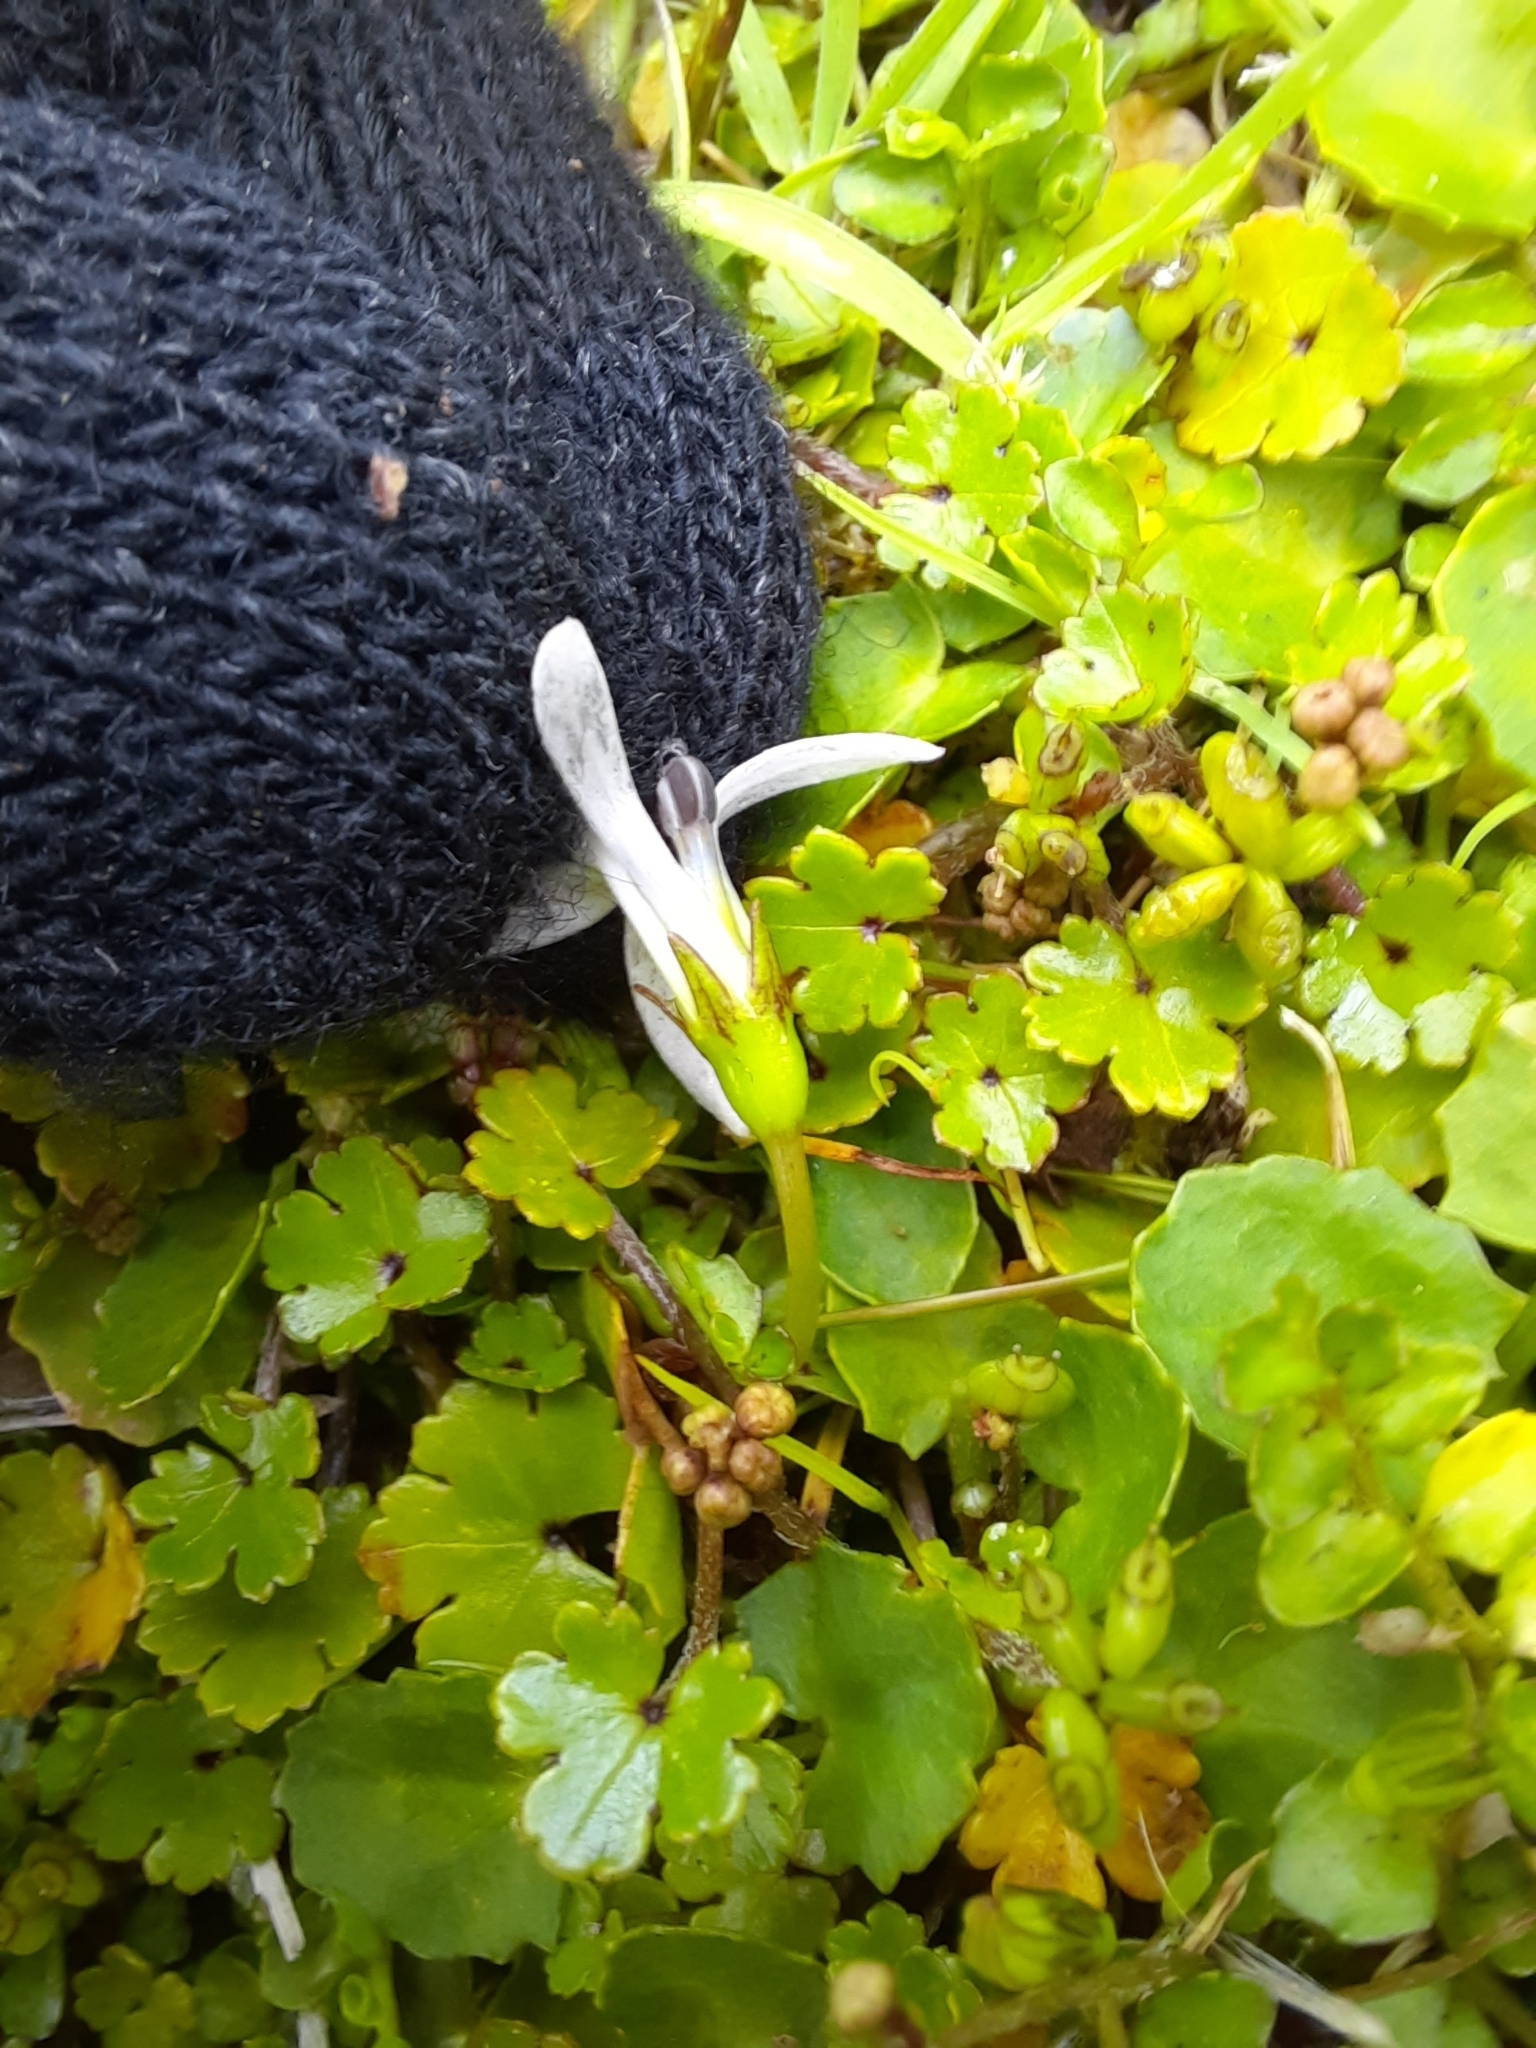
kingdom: Plantae
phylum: Tracheophyta
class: Magnoliopsida
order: Asterales
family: Campanulaceae
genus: Lobelia
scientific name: Lobelia angulata
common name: Lawn lobelia
